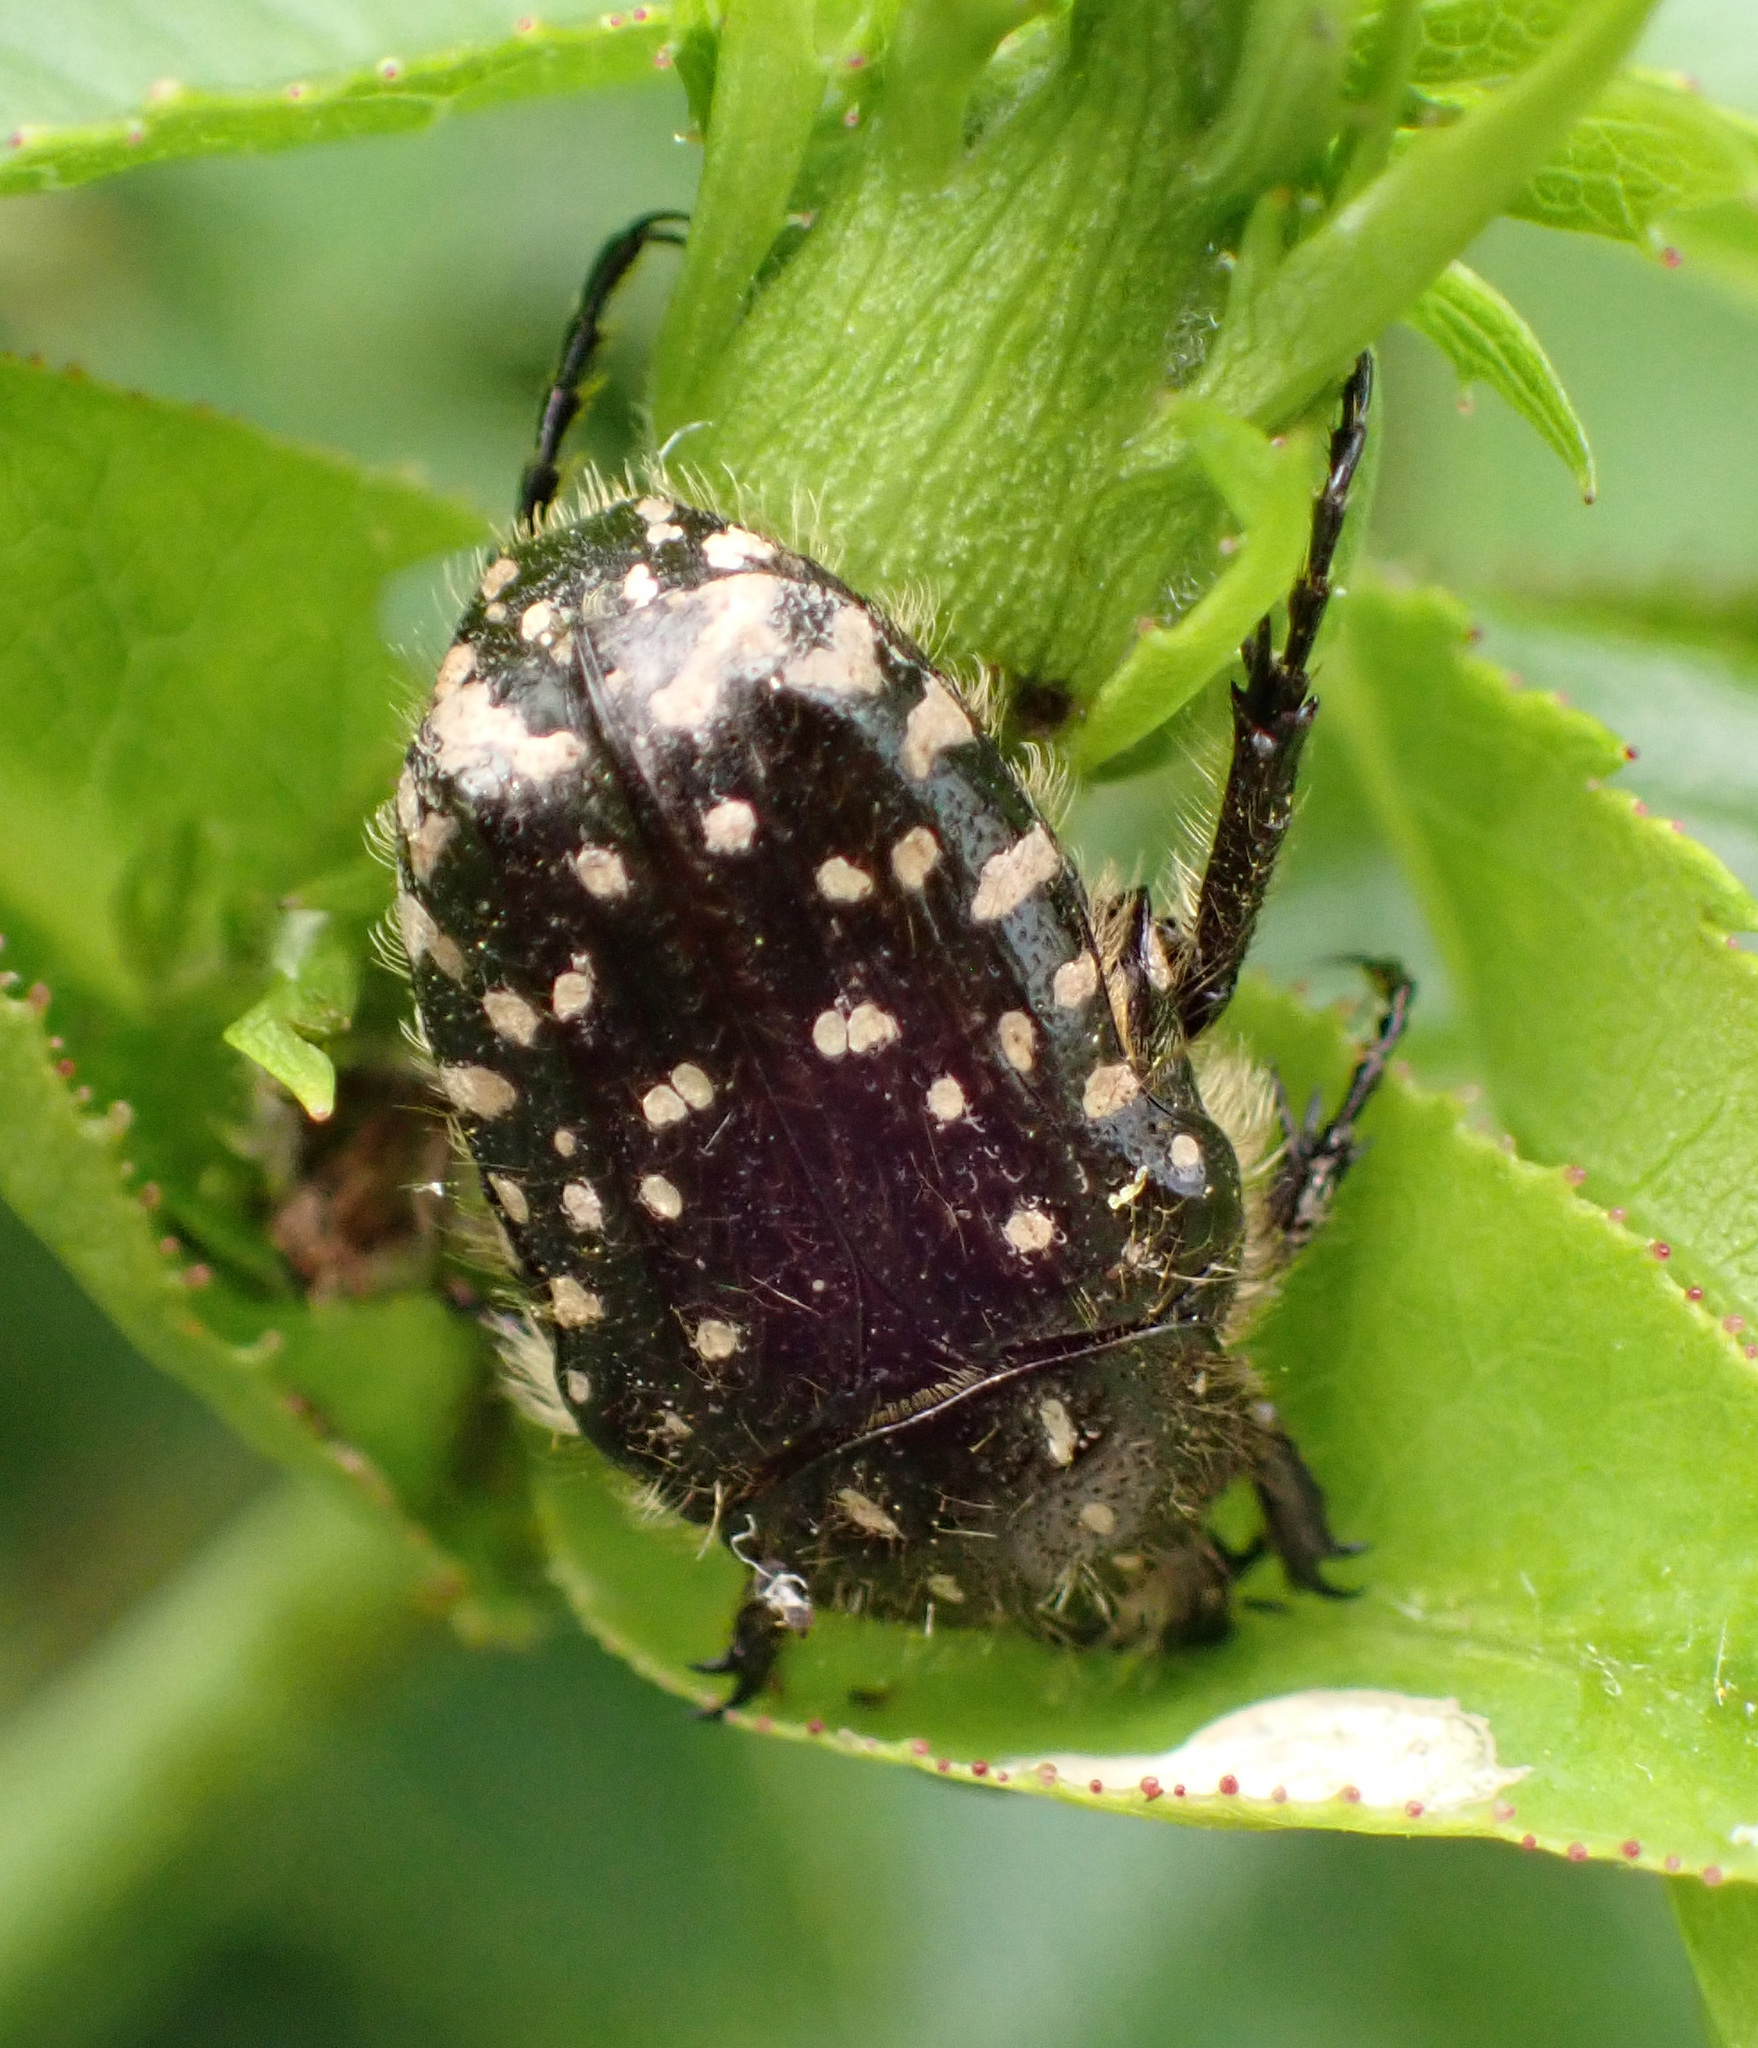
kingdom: Animalia
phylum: Arthropoda
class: Insecta
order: Coleoptera
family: Scarabaeidae
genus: Oxythyrea
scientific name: Oxythyrea funesta
